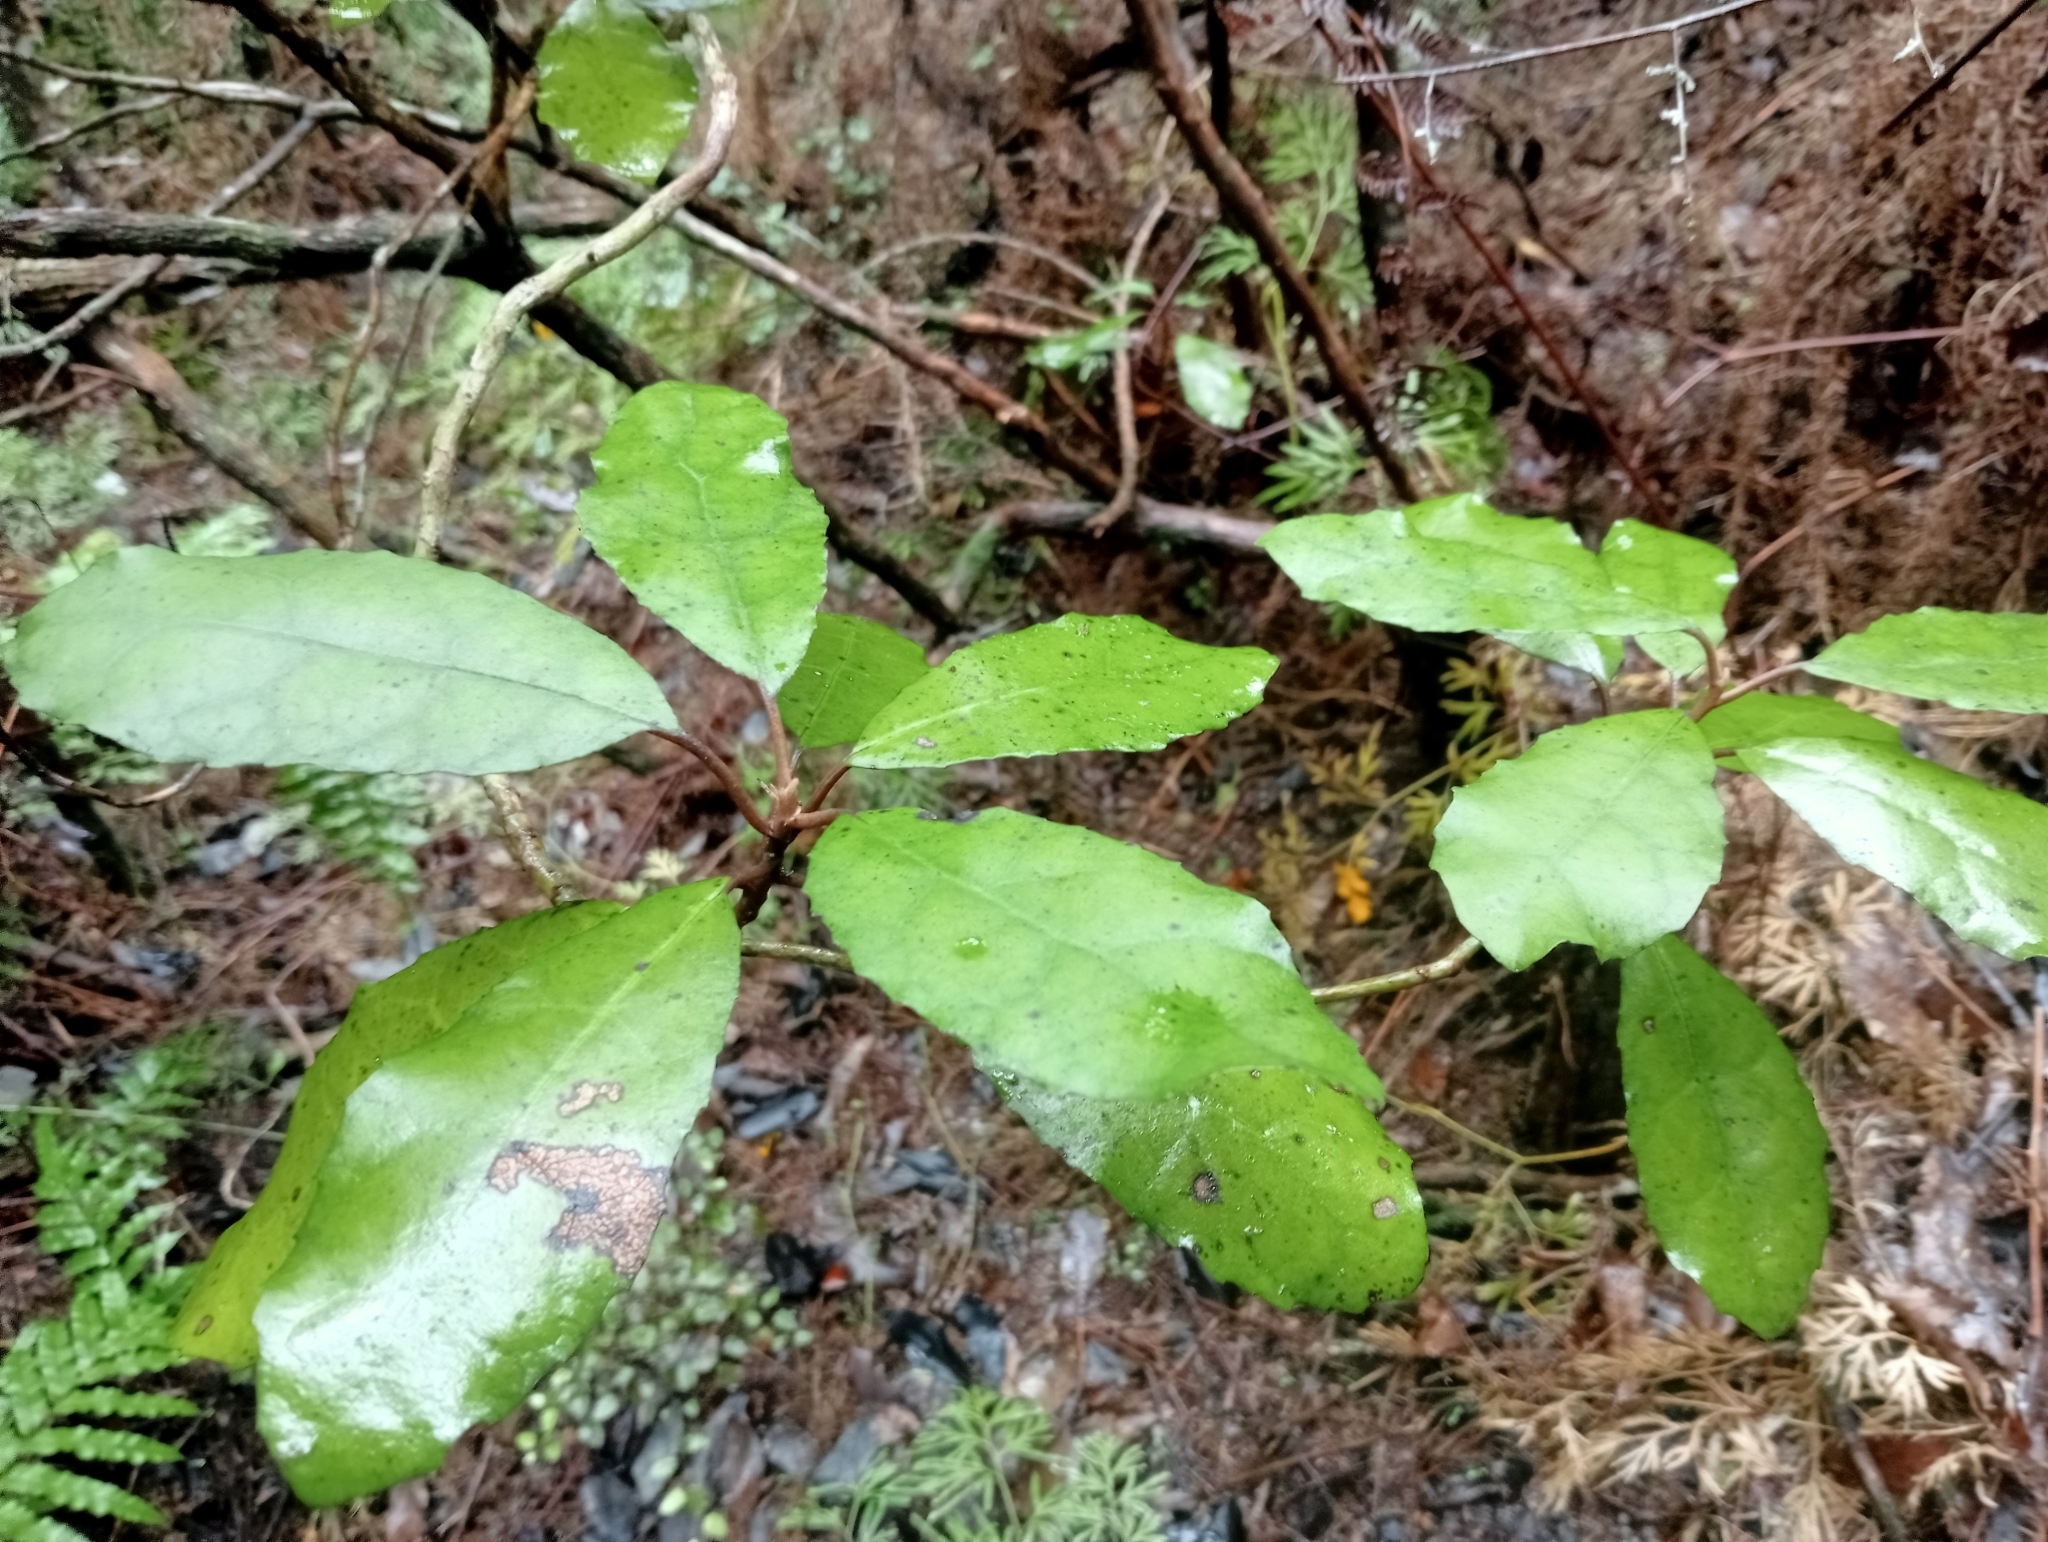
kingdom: Plantae
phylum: Tracheophyta
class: Magnoliopsida
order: Asterales
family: Asteraceae
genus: Olearia
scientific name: Olearia rani
